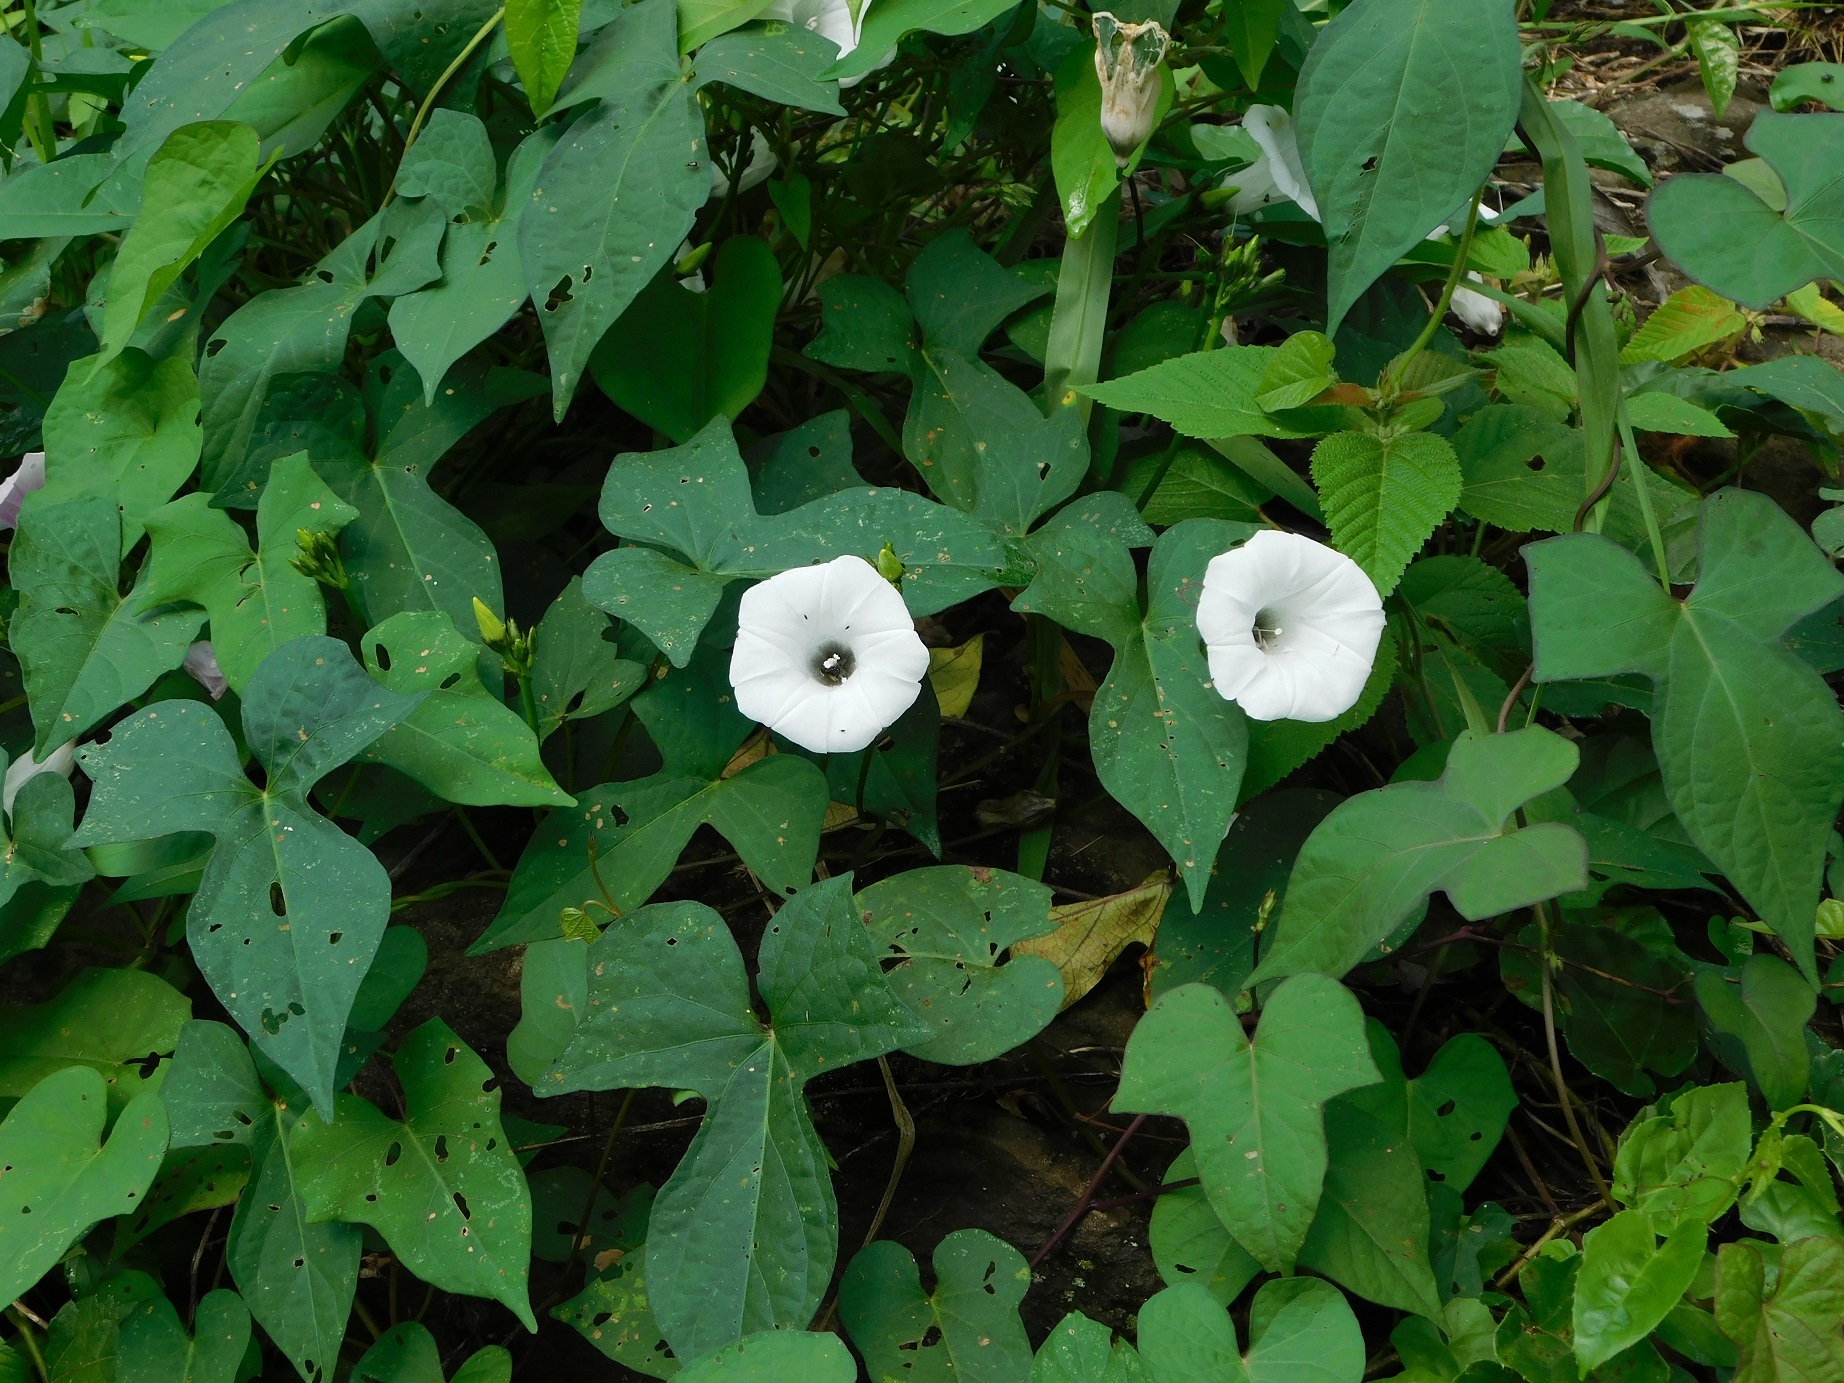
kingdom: Plantae
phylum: Tracheophyta
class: Magnoliopsida
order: Solanales
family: Convolvulaceae
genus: Ipomoea
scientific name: Ipomoea batatas
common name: Sweet-potato
